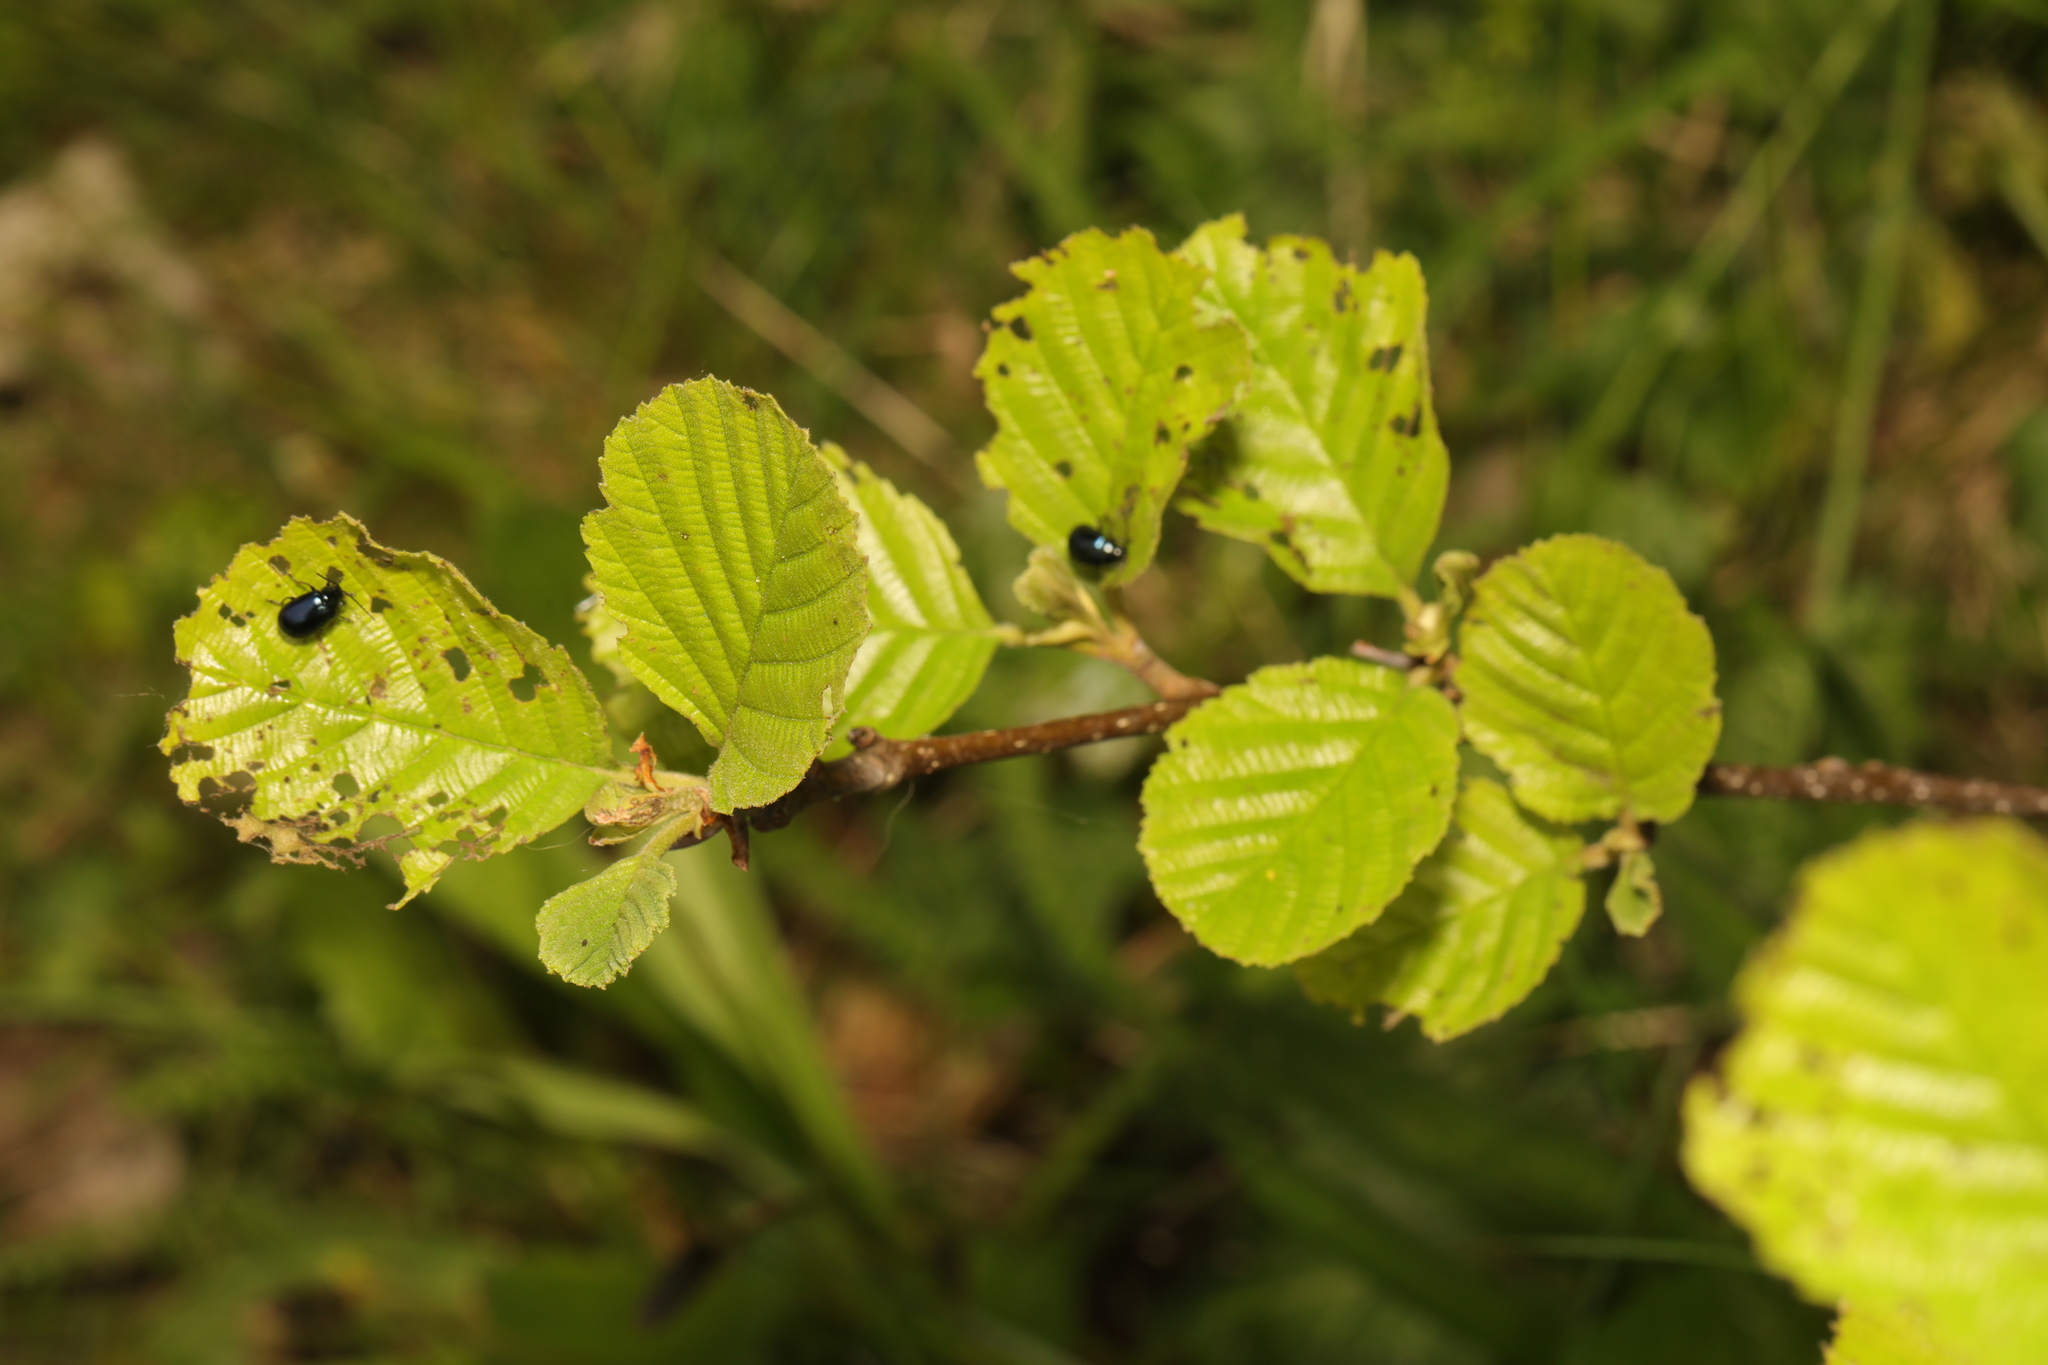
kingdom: Plantae
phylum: Tracheophyta
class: Magnoliopsida
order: Fagales
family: Betulaceae
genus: Alnus
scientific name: Alnus glutinosa
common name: Black alder
